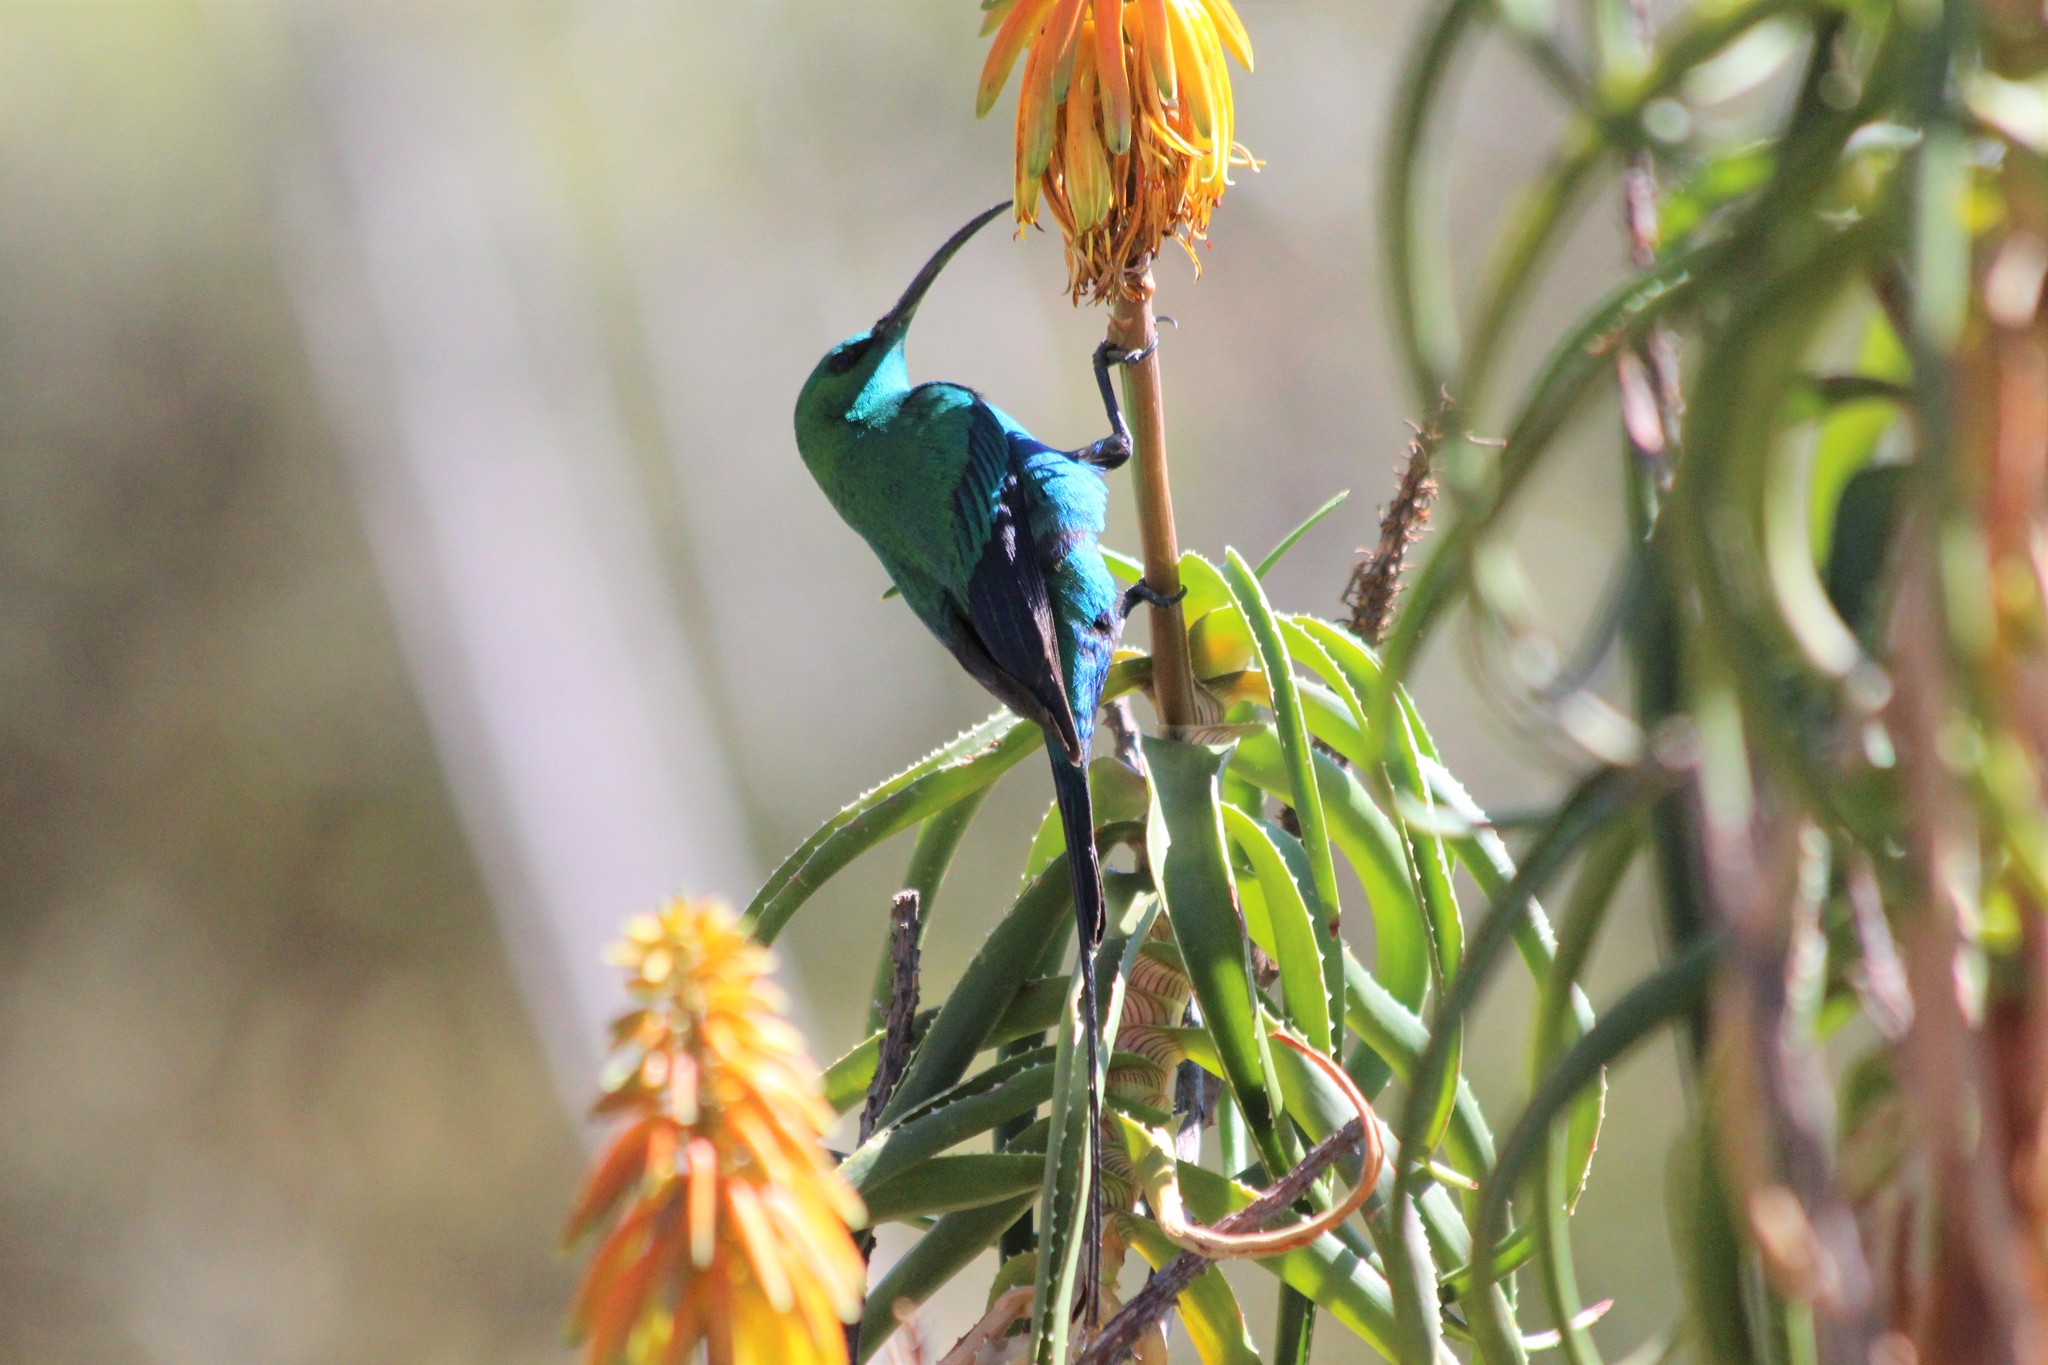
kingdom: Animalia
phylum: Chordata
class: Aves
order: Passeriformes
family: Nectariniidae
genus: Nectarinia
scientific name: Nectarinia famosa
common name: Malachite sunbird
